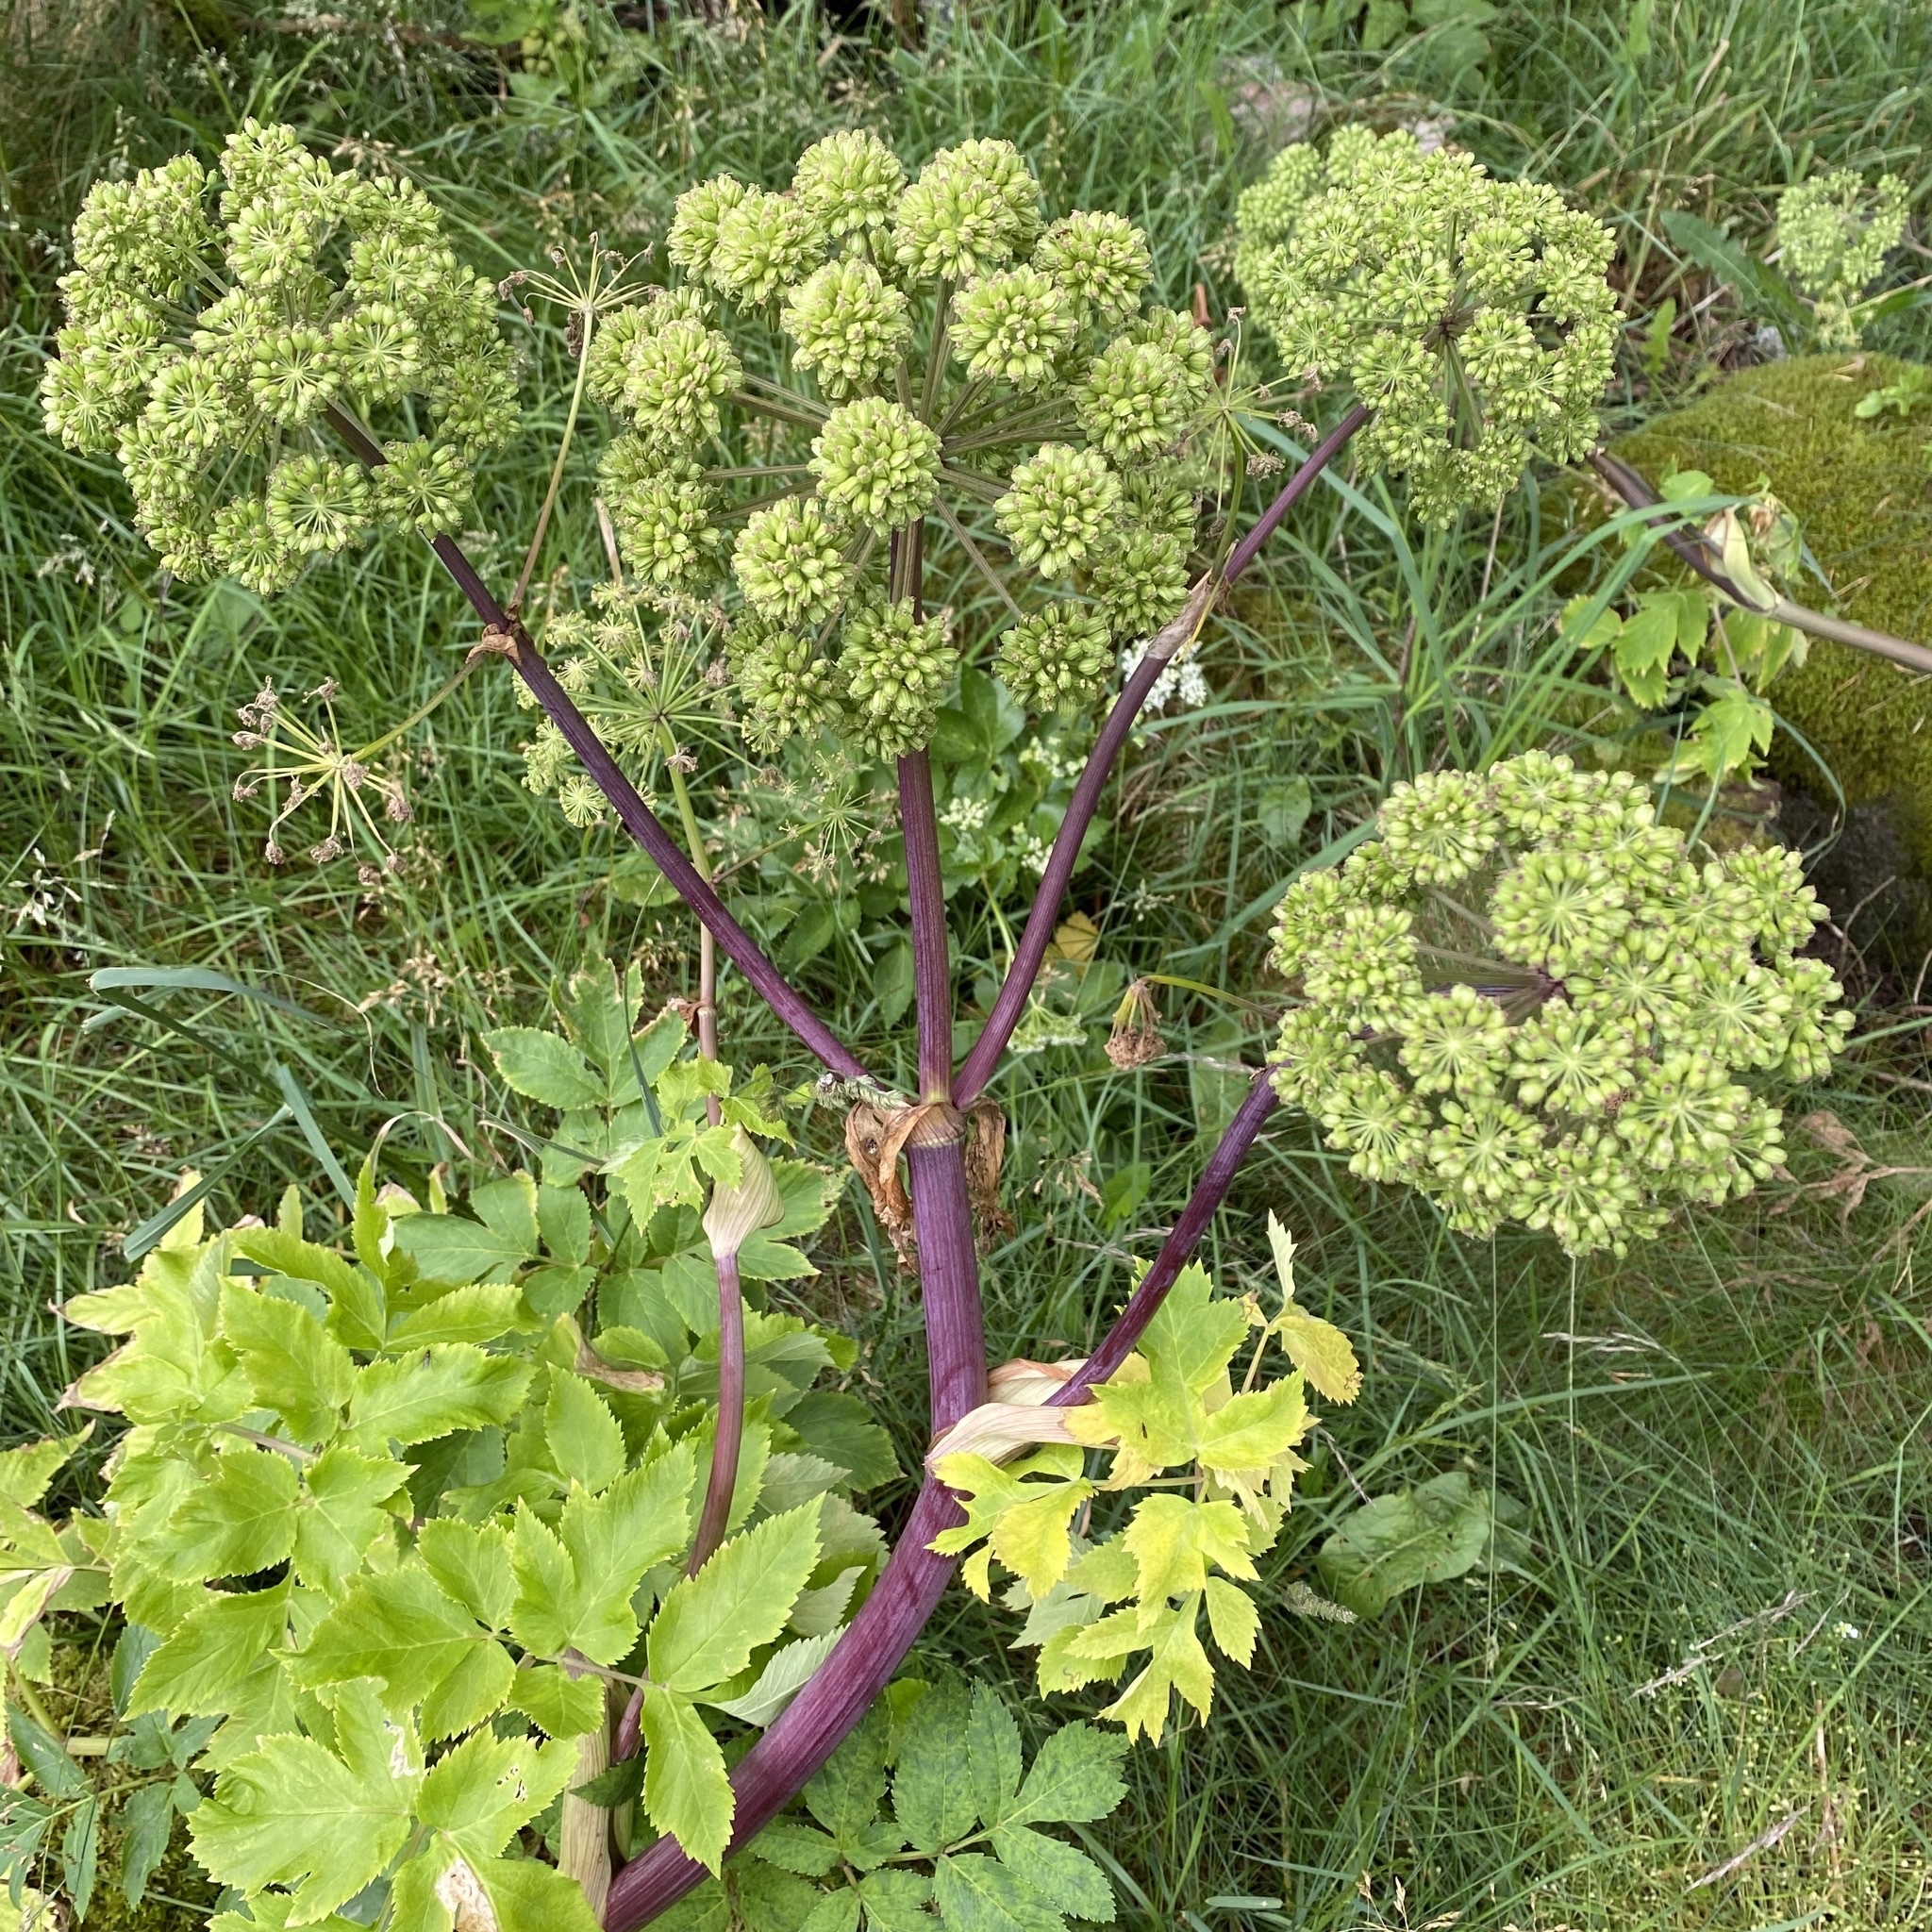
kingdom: Plantae
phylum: Tracheophyta
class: Magnoliopsida
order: Apiales
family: Apiaceae
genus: Angelica
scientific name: Angelica archangelica
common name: Garden angelica
